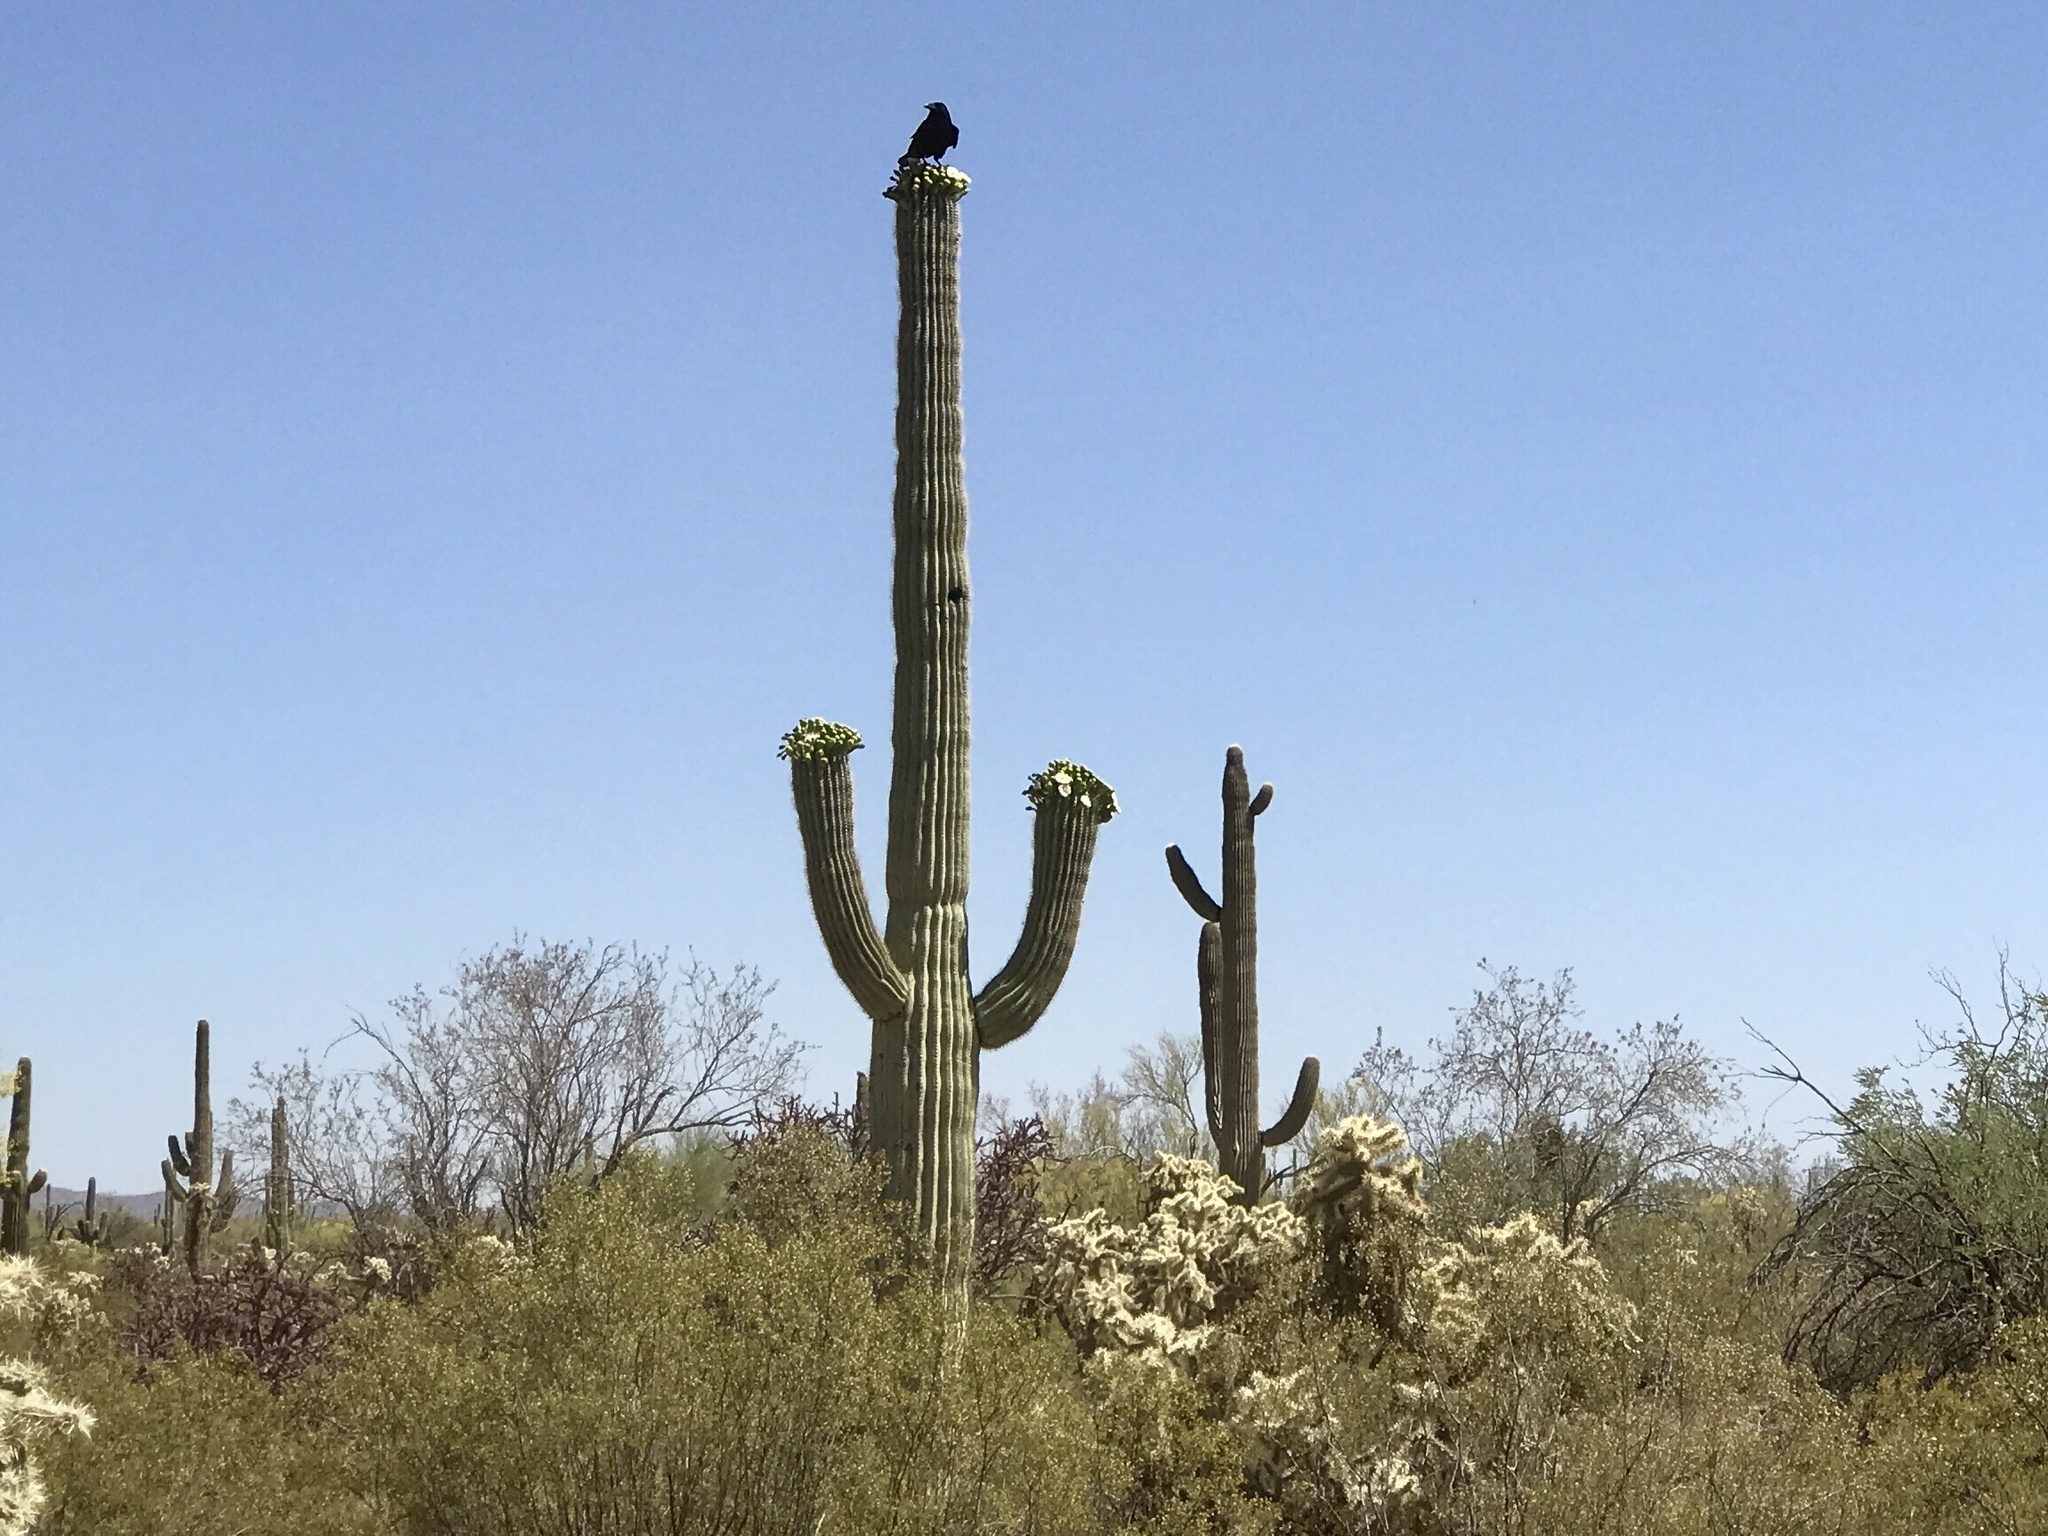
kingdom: Plantae
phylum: Tracheophyta
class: Magnoliopsida
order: Caryophyllales
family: Cactaceae
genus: Cylindropuntia
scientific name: Cylindropuntia fulgida
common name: Jumping cholla
